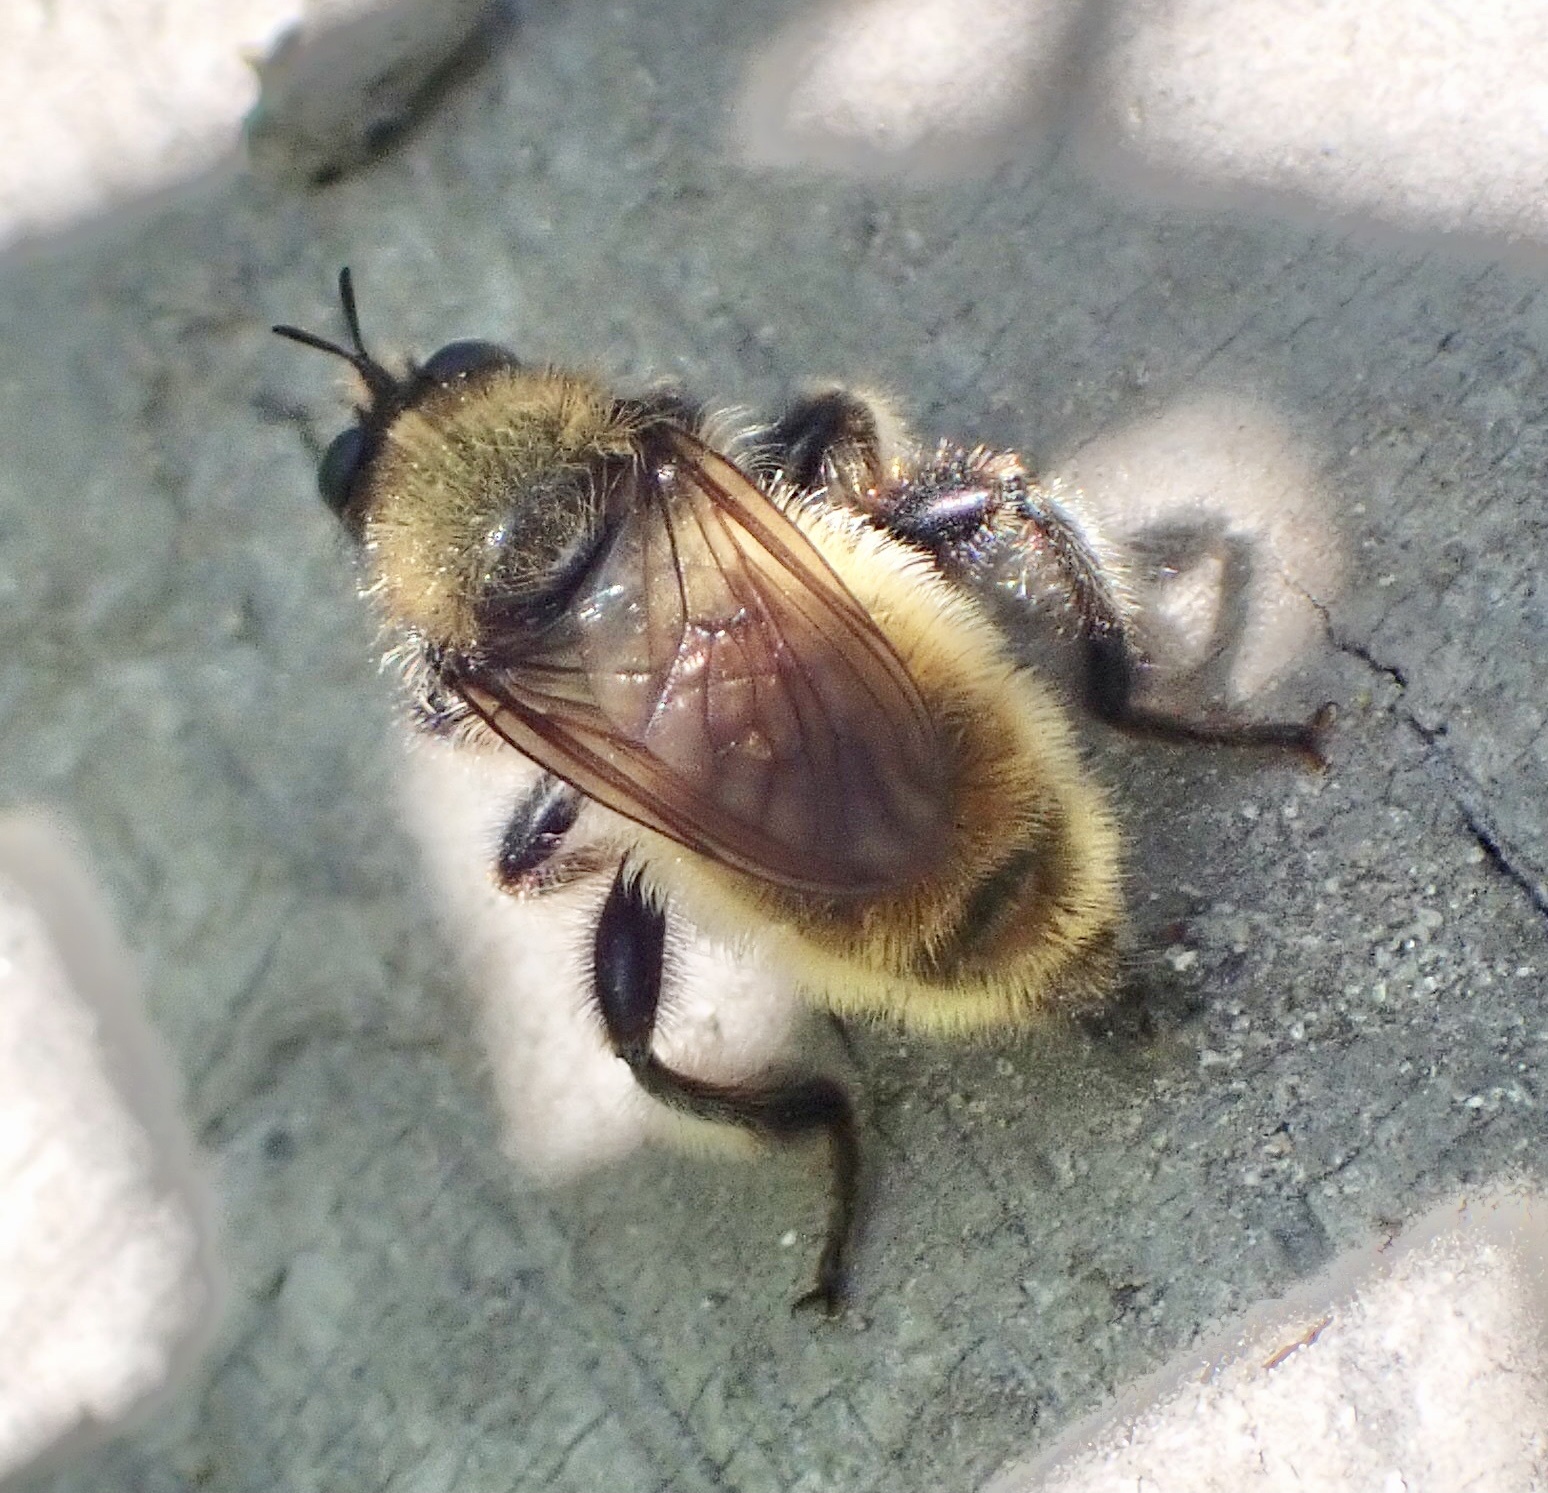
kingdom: Animalia
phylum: Arthropoda
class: Insecta
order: Diptera
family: Asilidae
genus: Laphria
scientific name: Laphria flava
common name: Bumblebee robberfly
